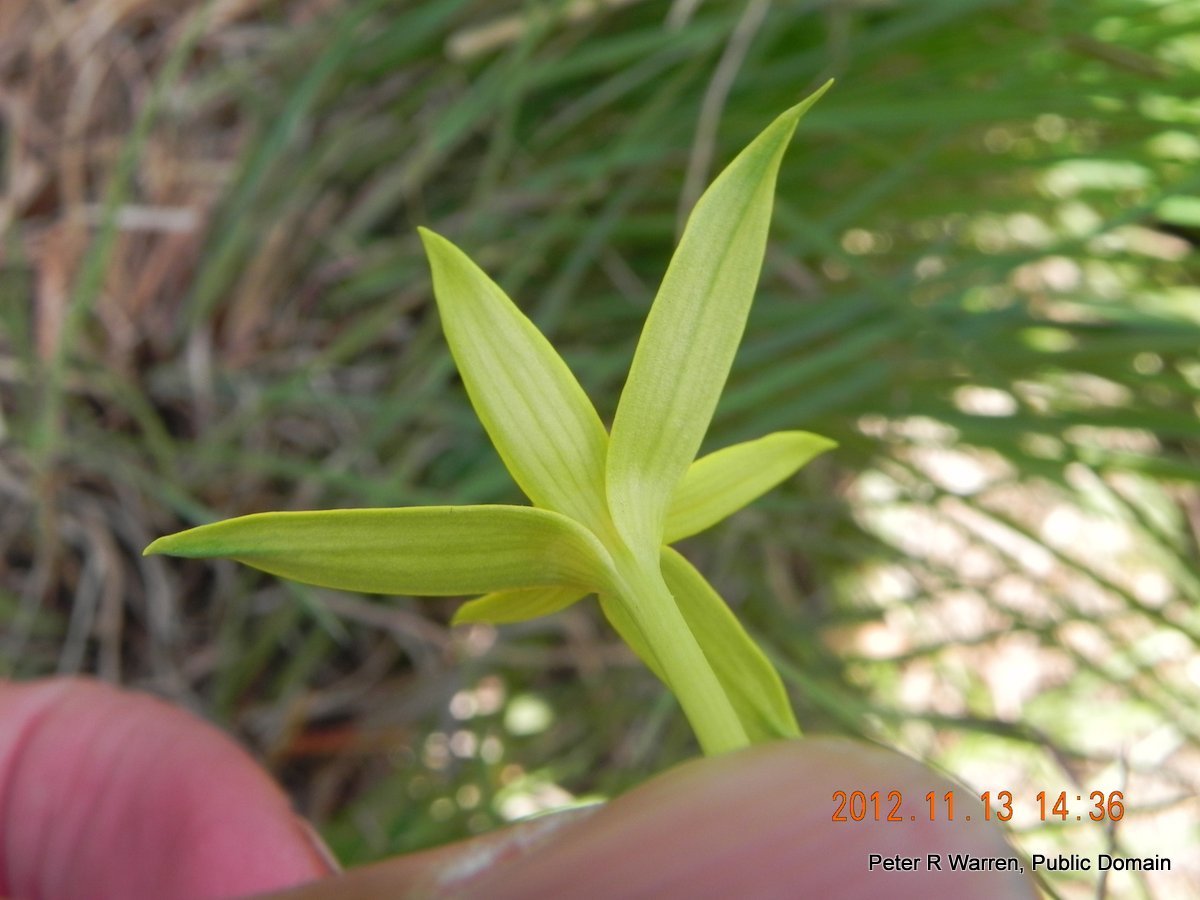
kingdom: Plantae
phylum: Tracheophyta
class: Liliopsida
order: Asparagales
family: Hypoxidaceae
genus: Empodium
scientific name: Empodium elongatum
